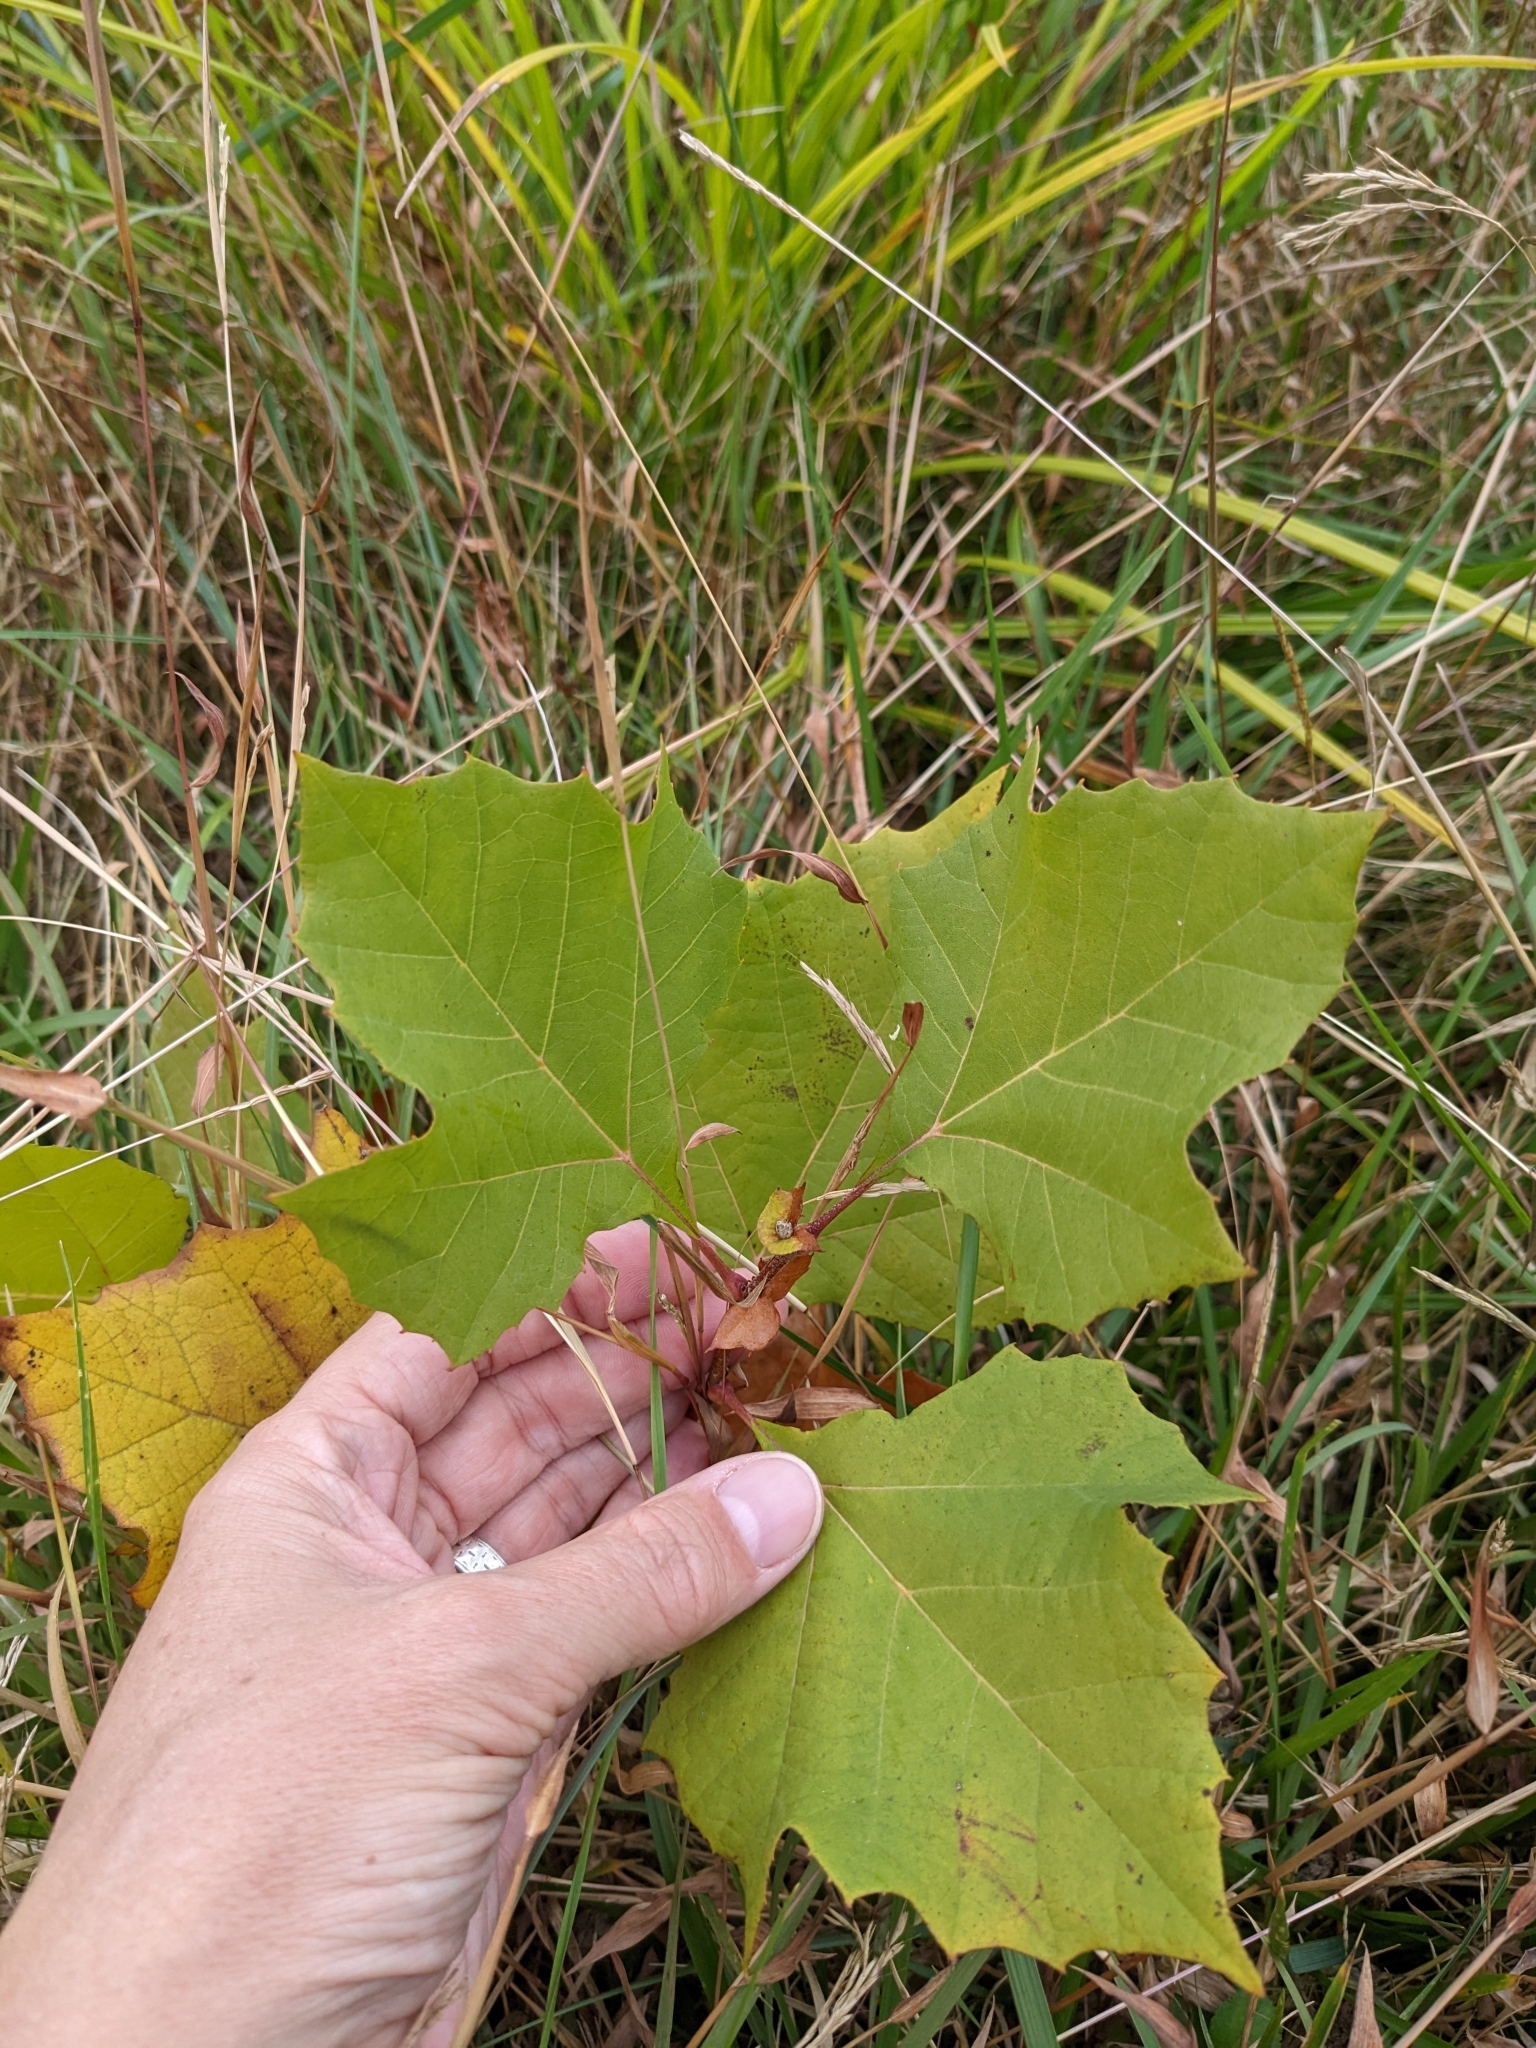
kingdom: Plantae
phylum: Tracheophyta
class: Magnoliopsida
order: Proteales
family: Platanaceae
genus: Platanus
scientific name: Platanus occidentalis
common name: American sycamore
